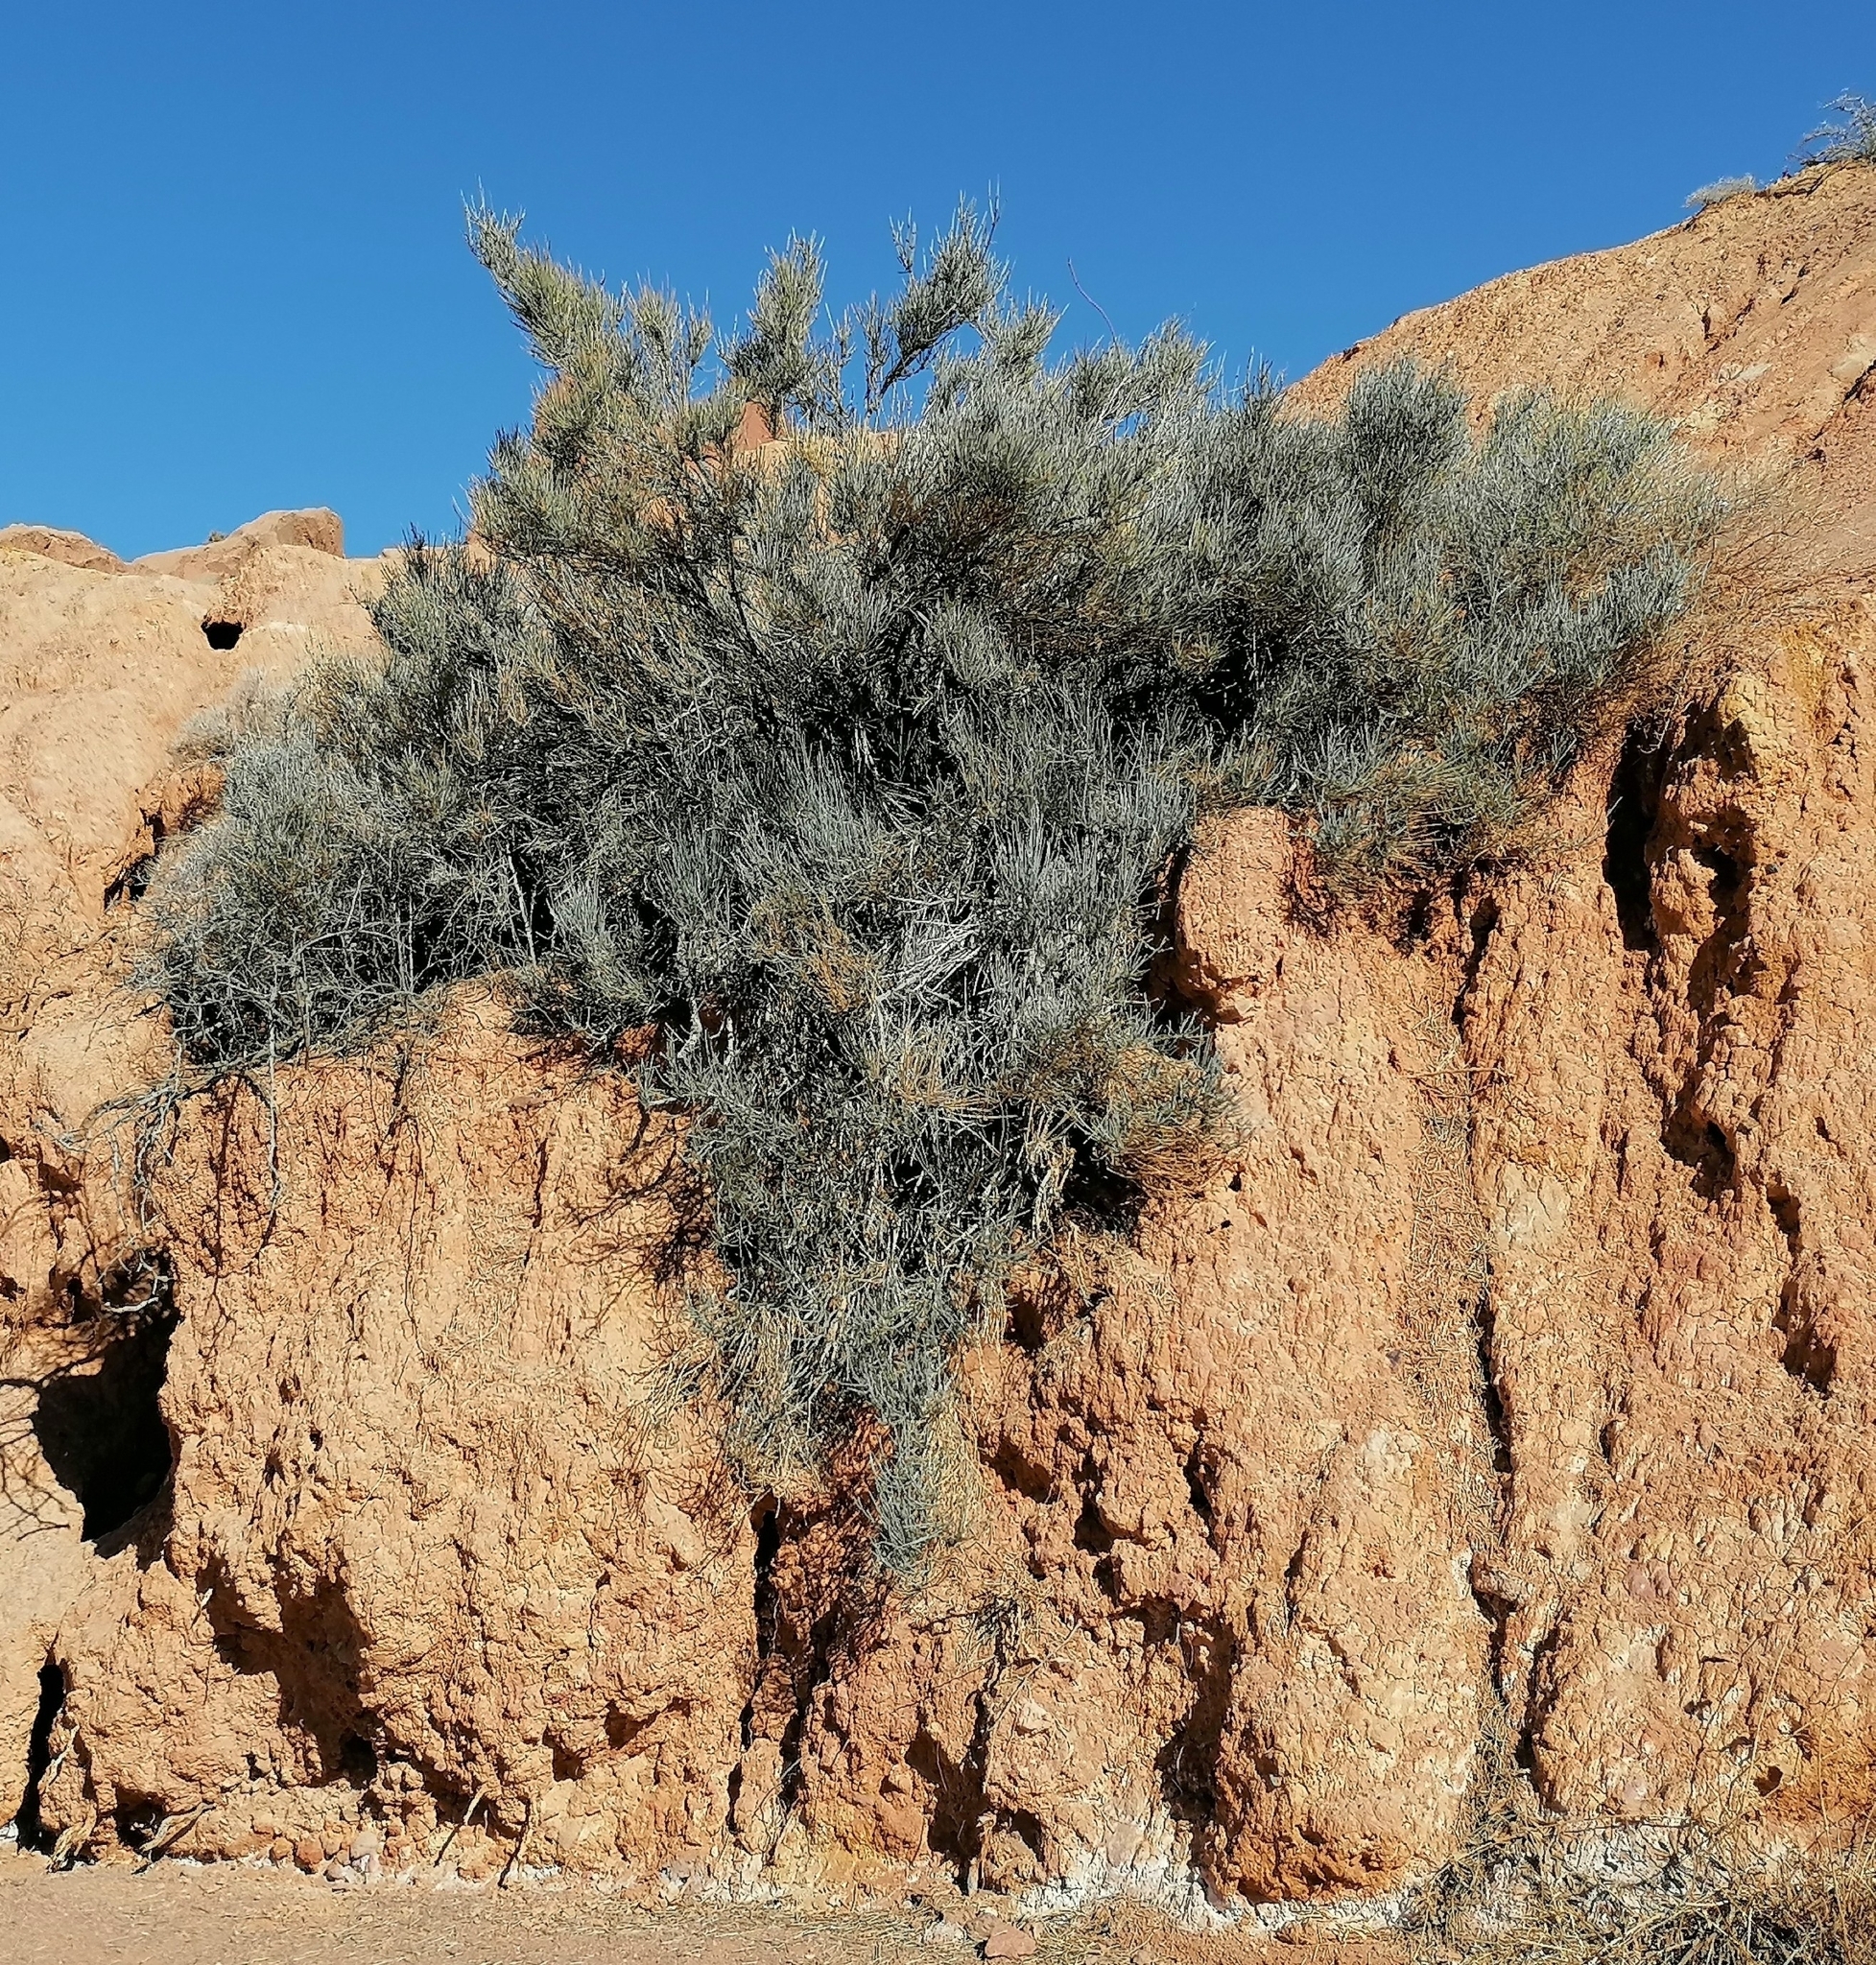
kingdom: Plantae
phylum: Tracheophyta
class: Gnetopsida
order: Ephedrales
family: Ephedraceae
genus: Ephedra
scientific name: Ephedra equisetina
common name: Mongolian ephedra
